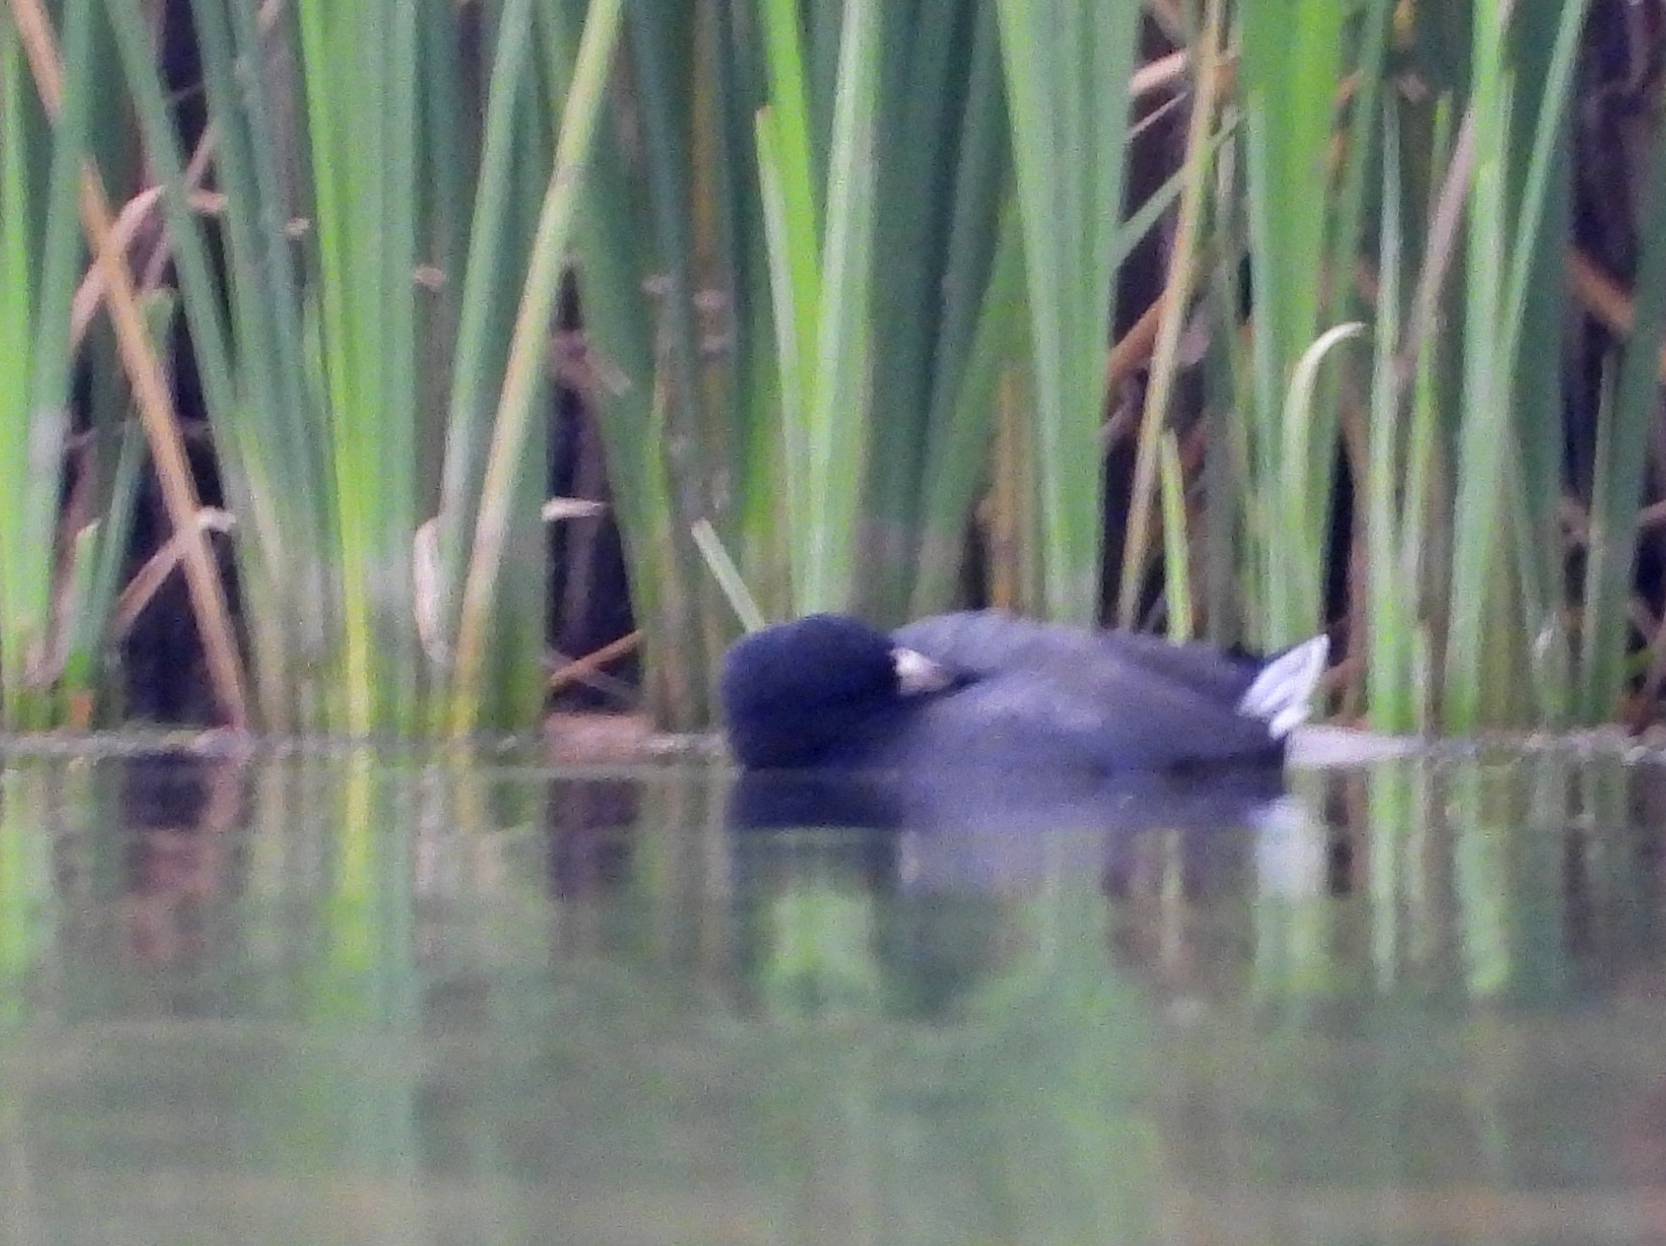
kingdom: Animalia
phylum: Chordata
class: Aves
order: Gruiformes
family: Rallidae
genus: Fulica
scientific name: Fulica americana
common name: American coot
